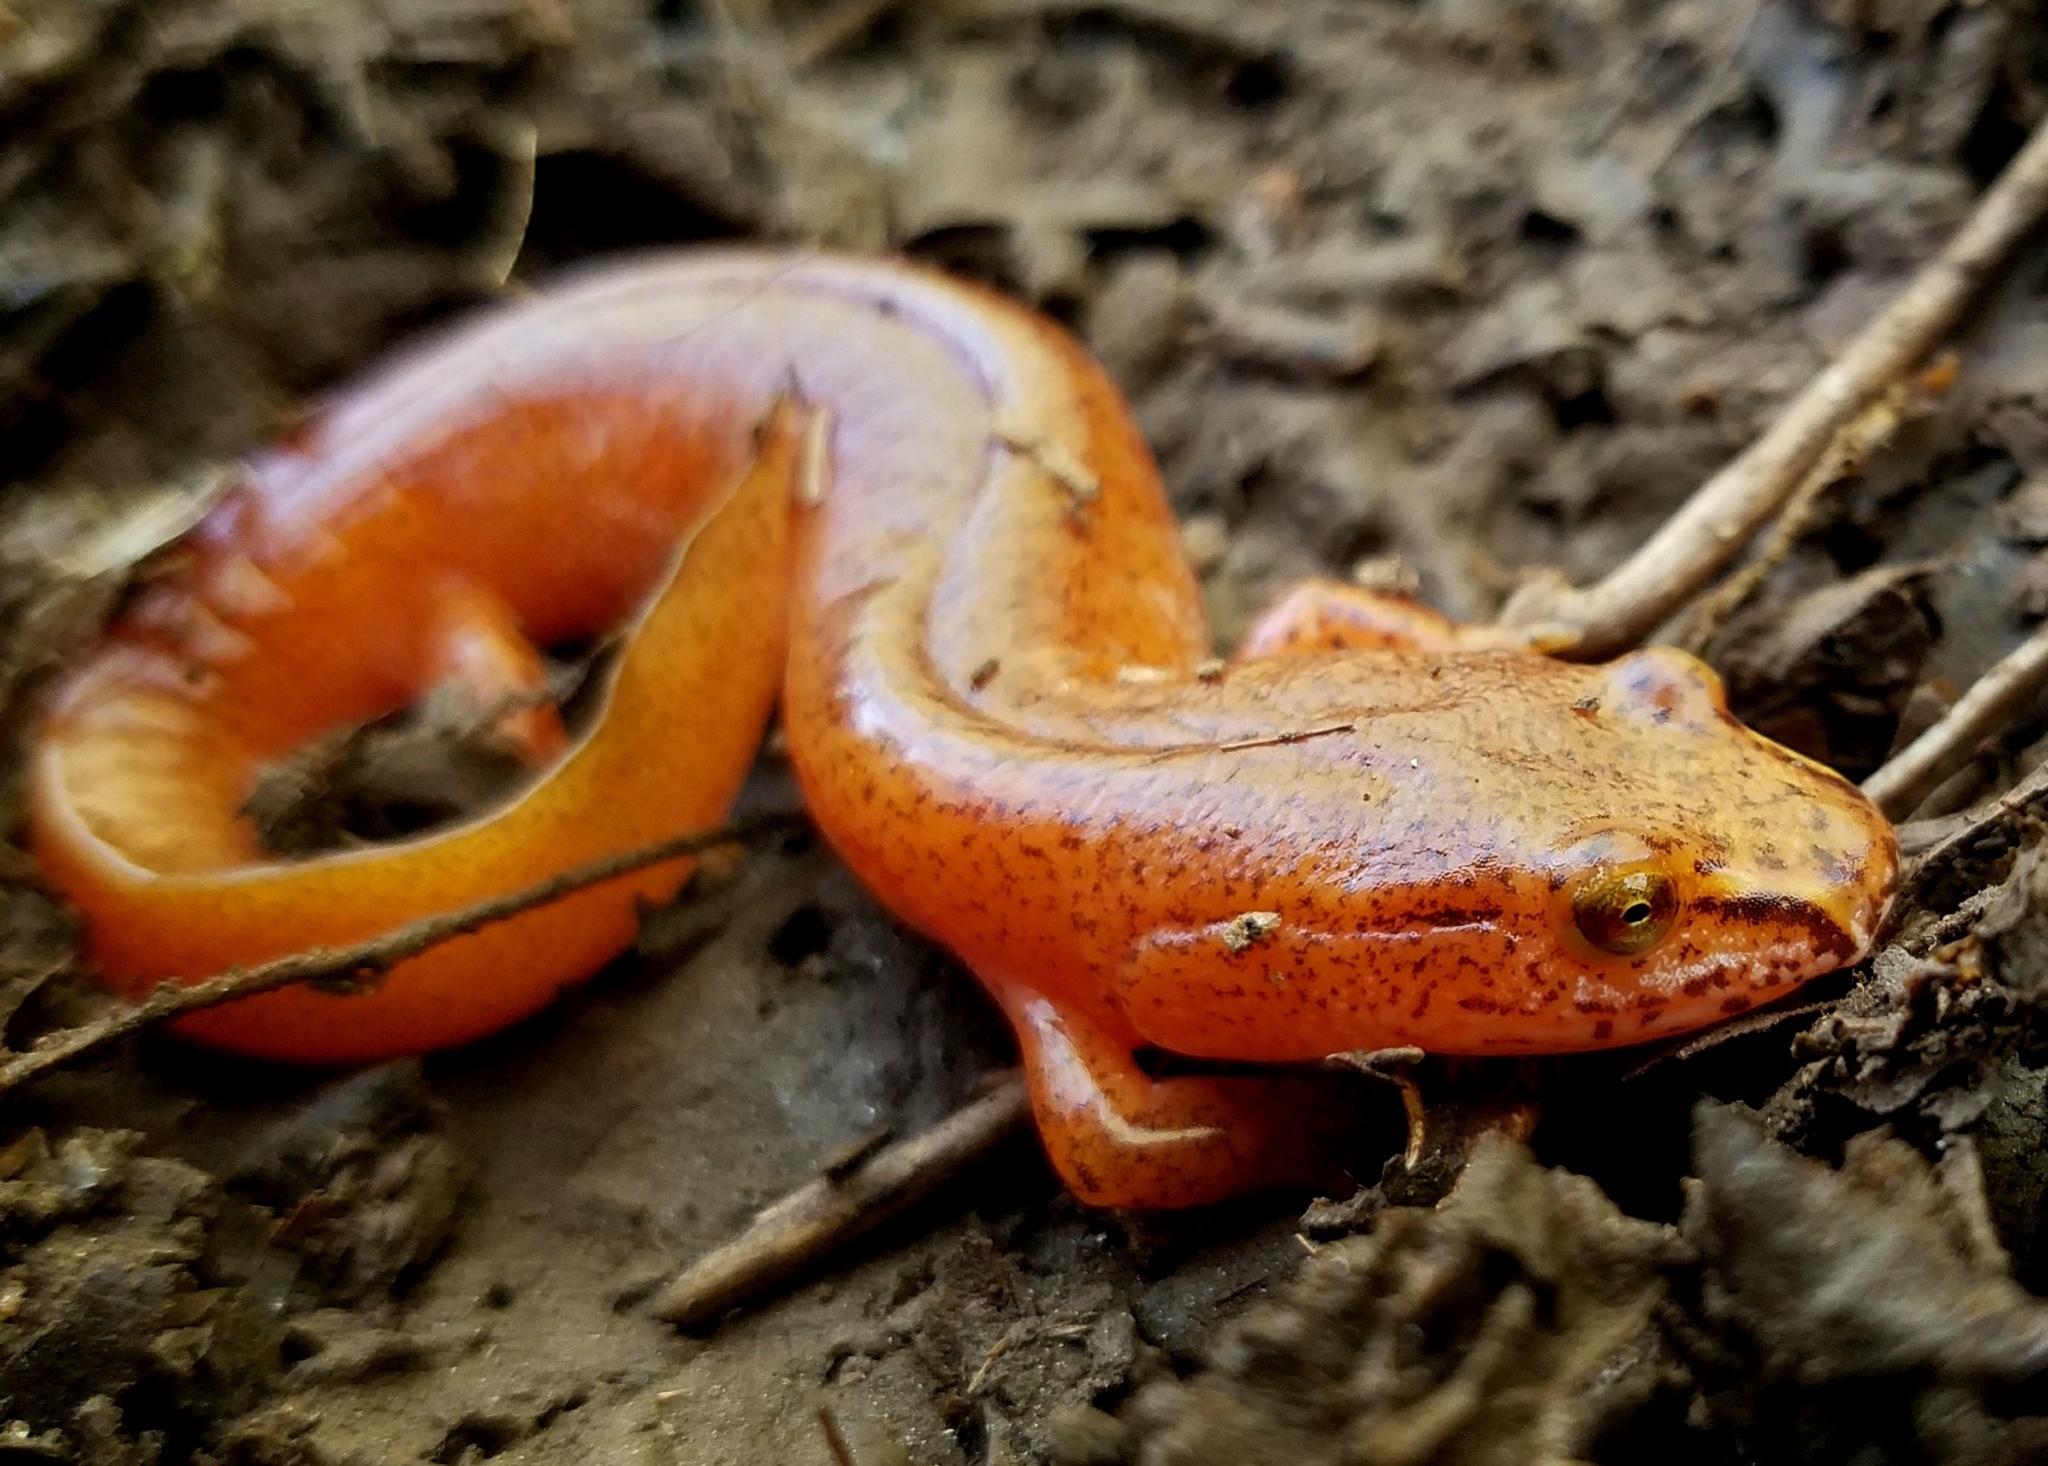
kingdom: Animalia
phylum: Chordata
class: Amphibia
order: Caudata
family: Plethodontidae
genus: Gyrinophilus
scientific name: Gyrinophilus porphyriticus
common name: Spring salamander
